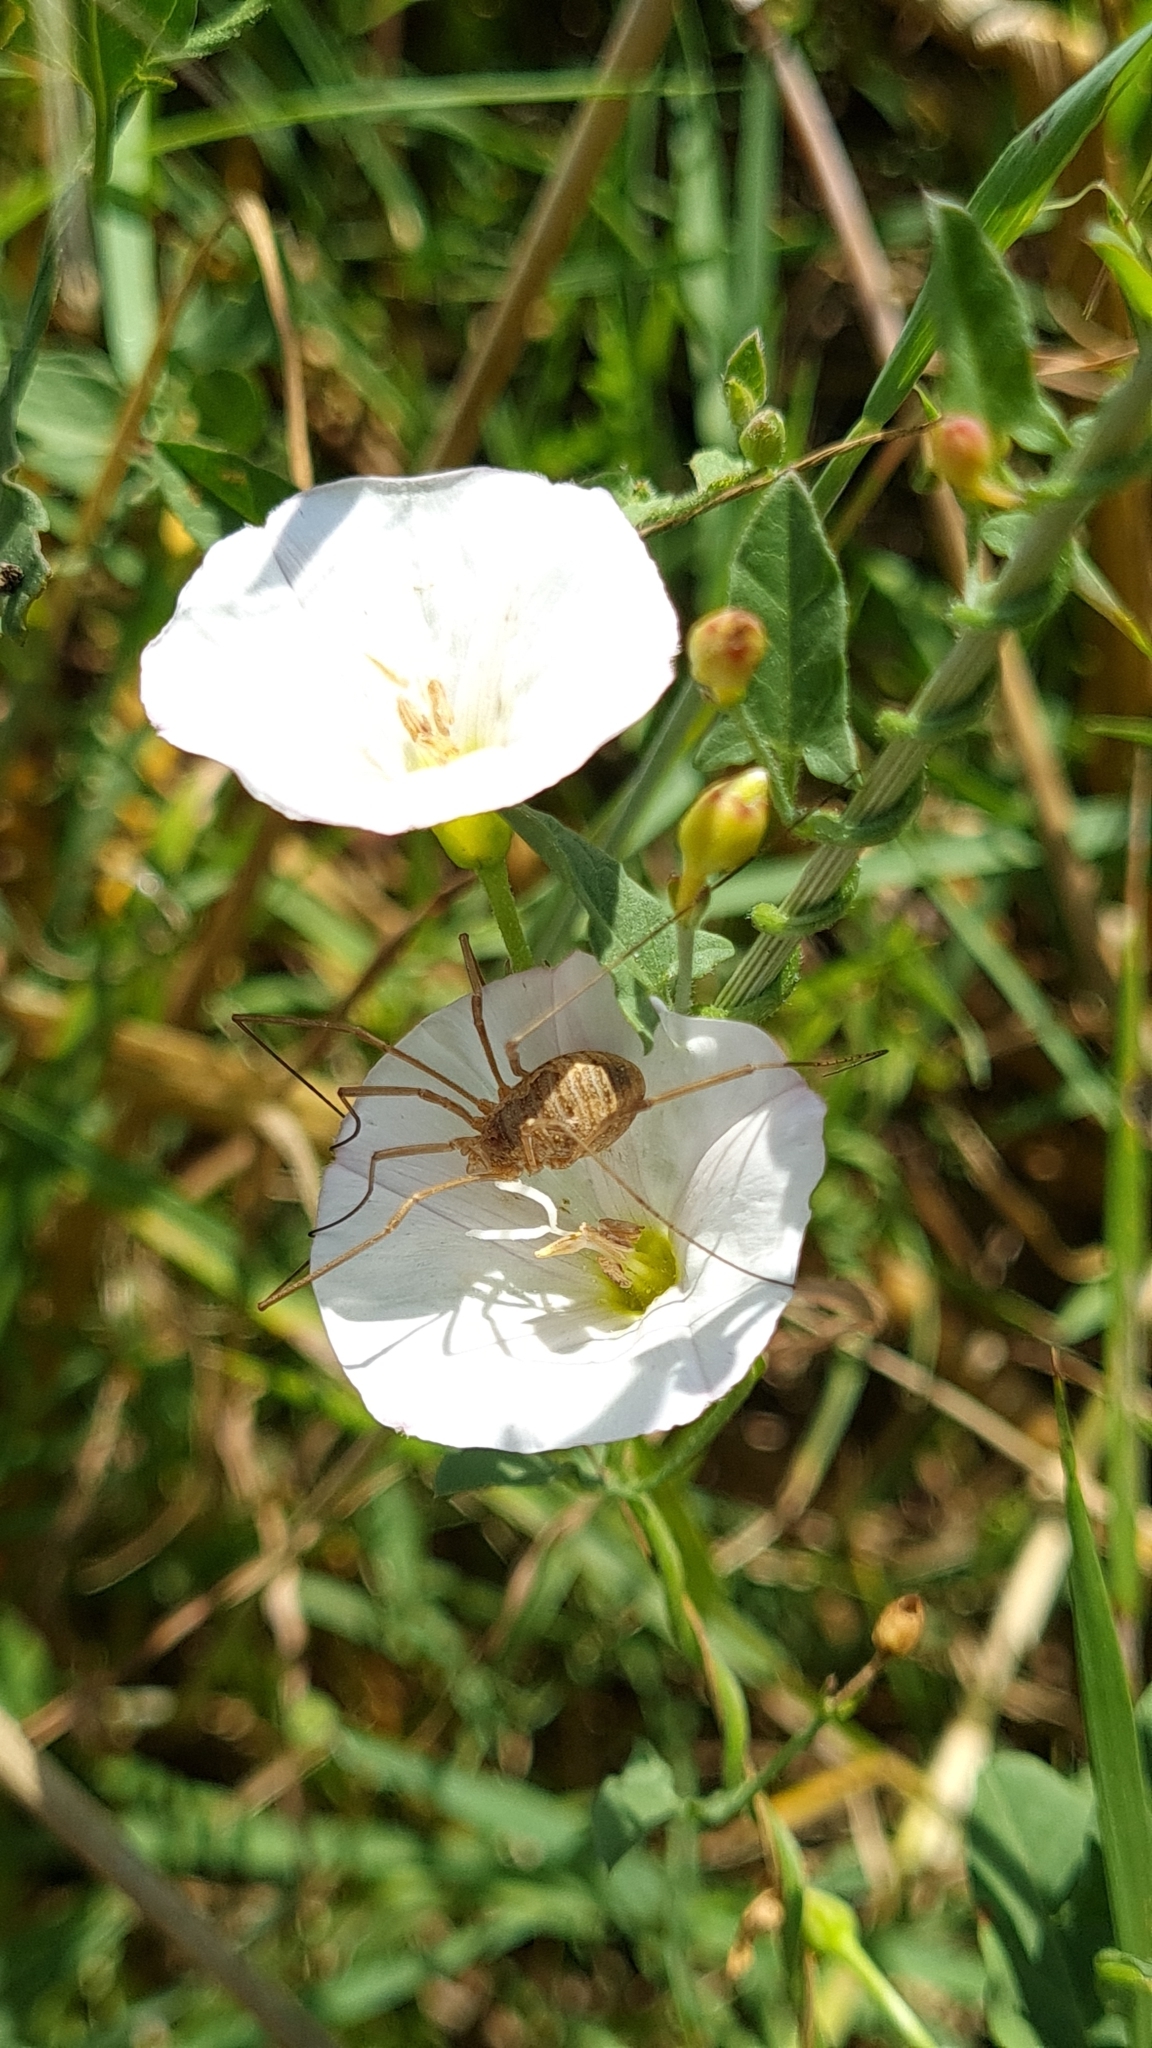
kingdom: Animalia
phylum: Arthropoda
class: Arachnida
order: Opiliones
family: Phalangiidae
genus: Phalangium
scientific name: Phalangium opilio
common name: Daddy longleg
